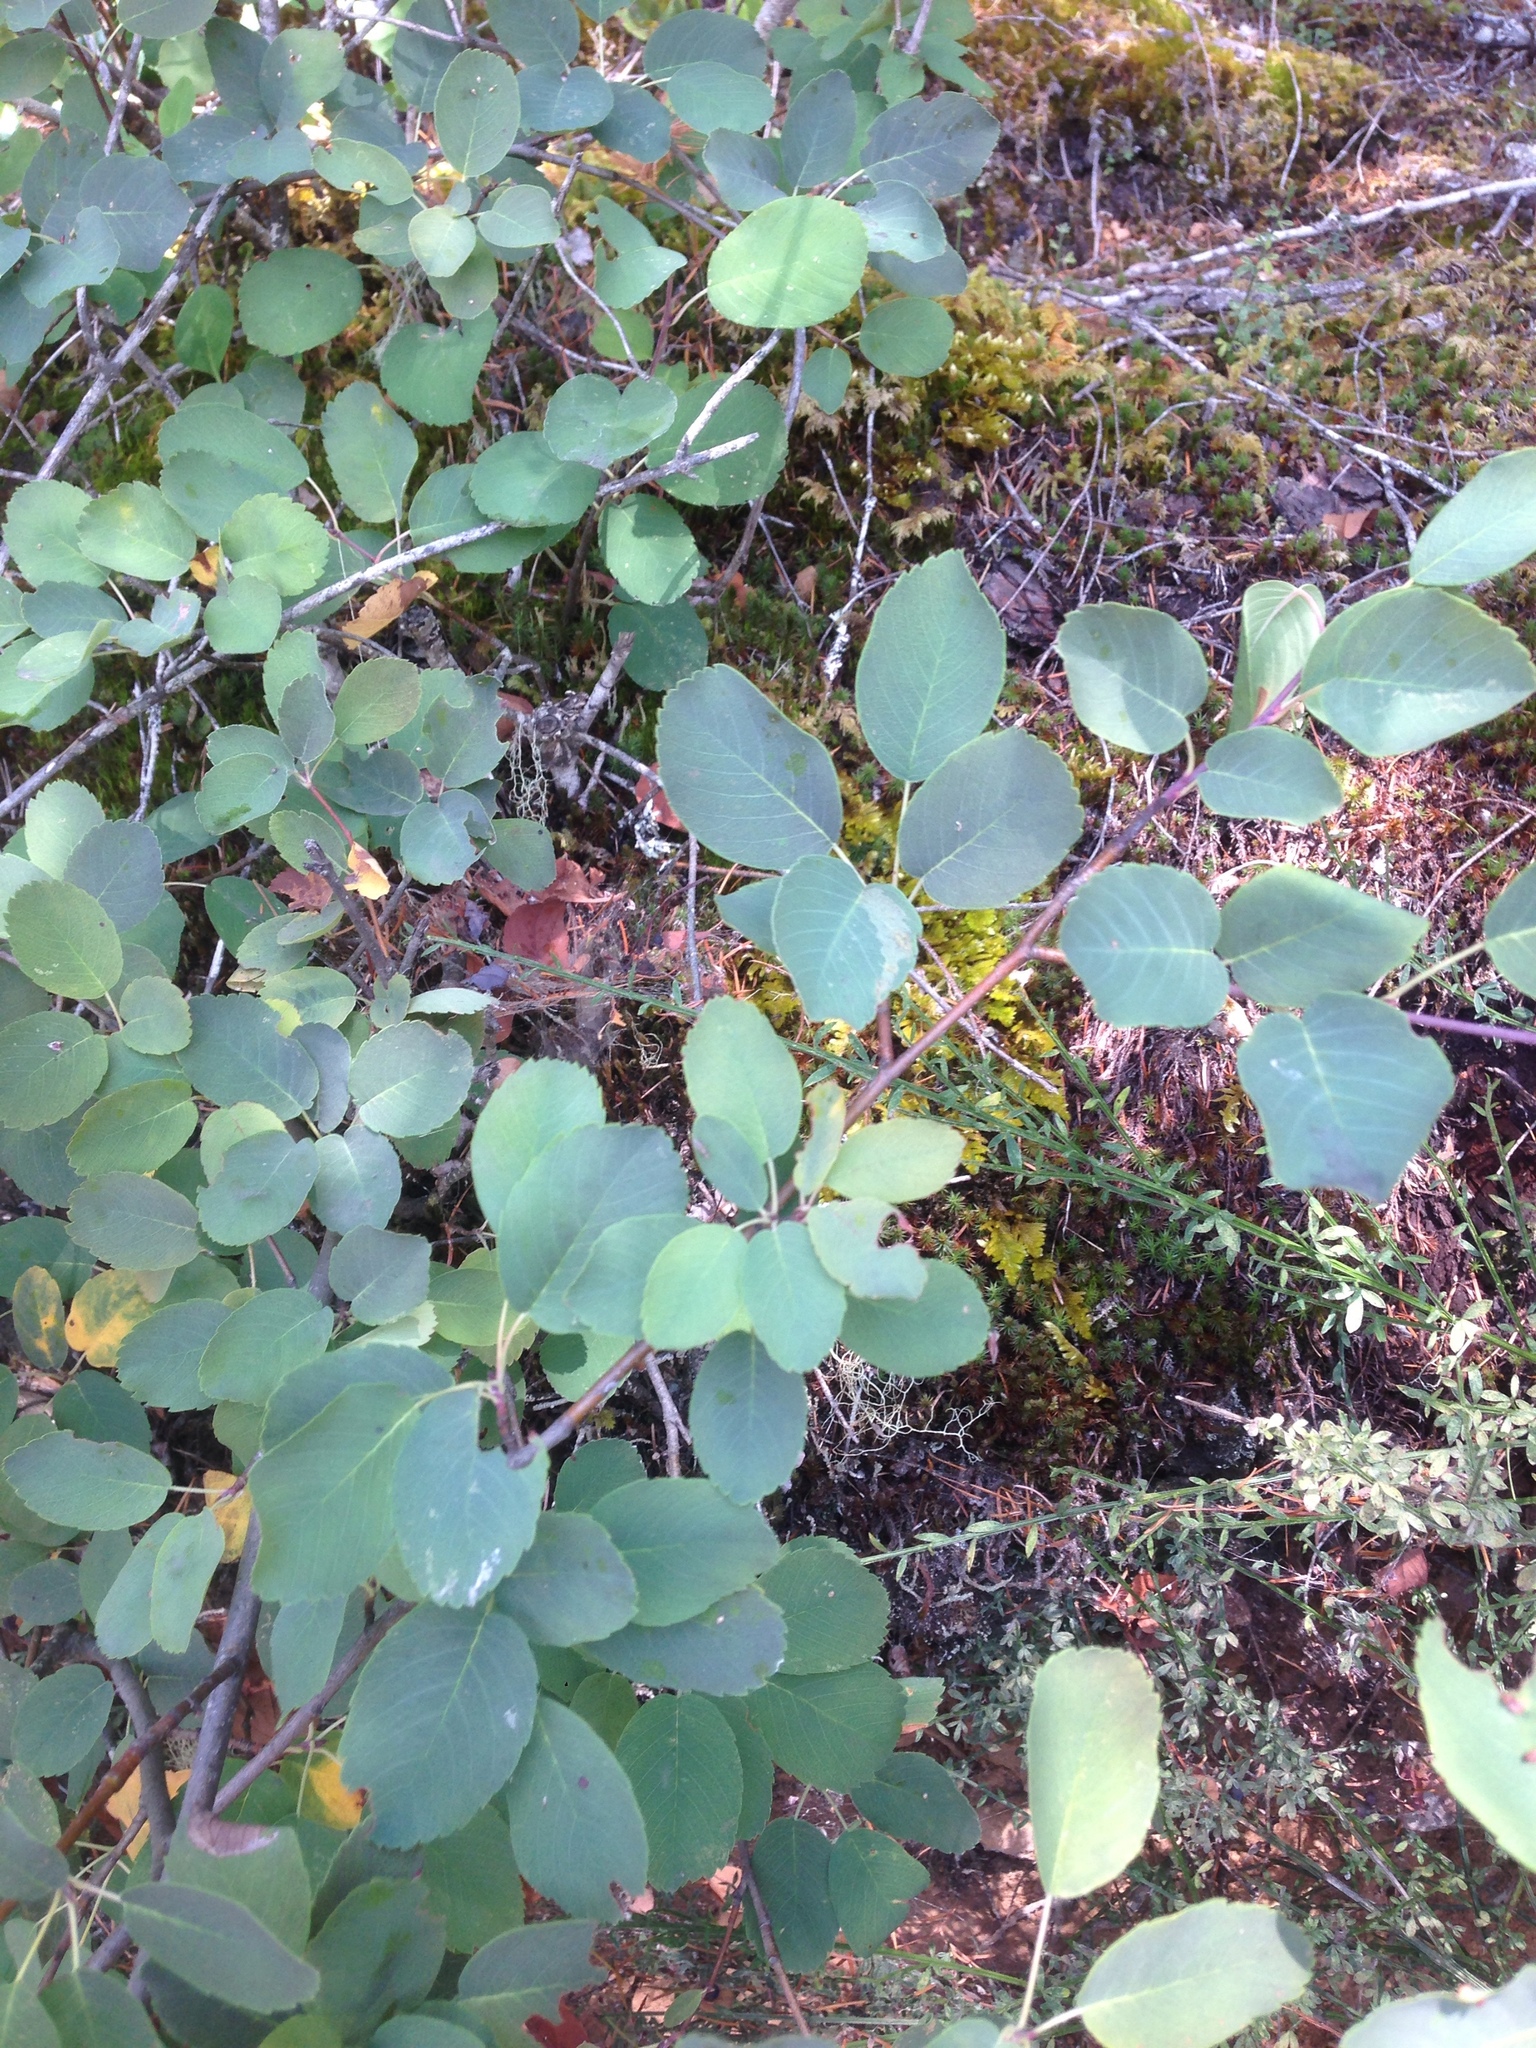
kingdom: Plantae
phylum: Tracheophyta
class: Magnoliopsida
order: Rosales
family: Rosaceae
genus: Amelanchier
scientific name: Amelanchier alnifolia
